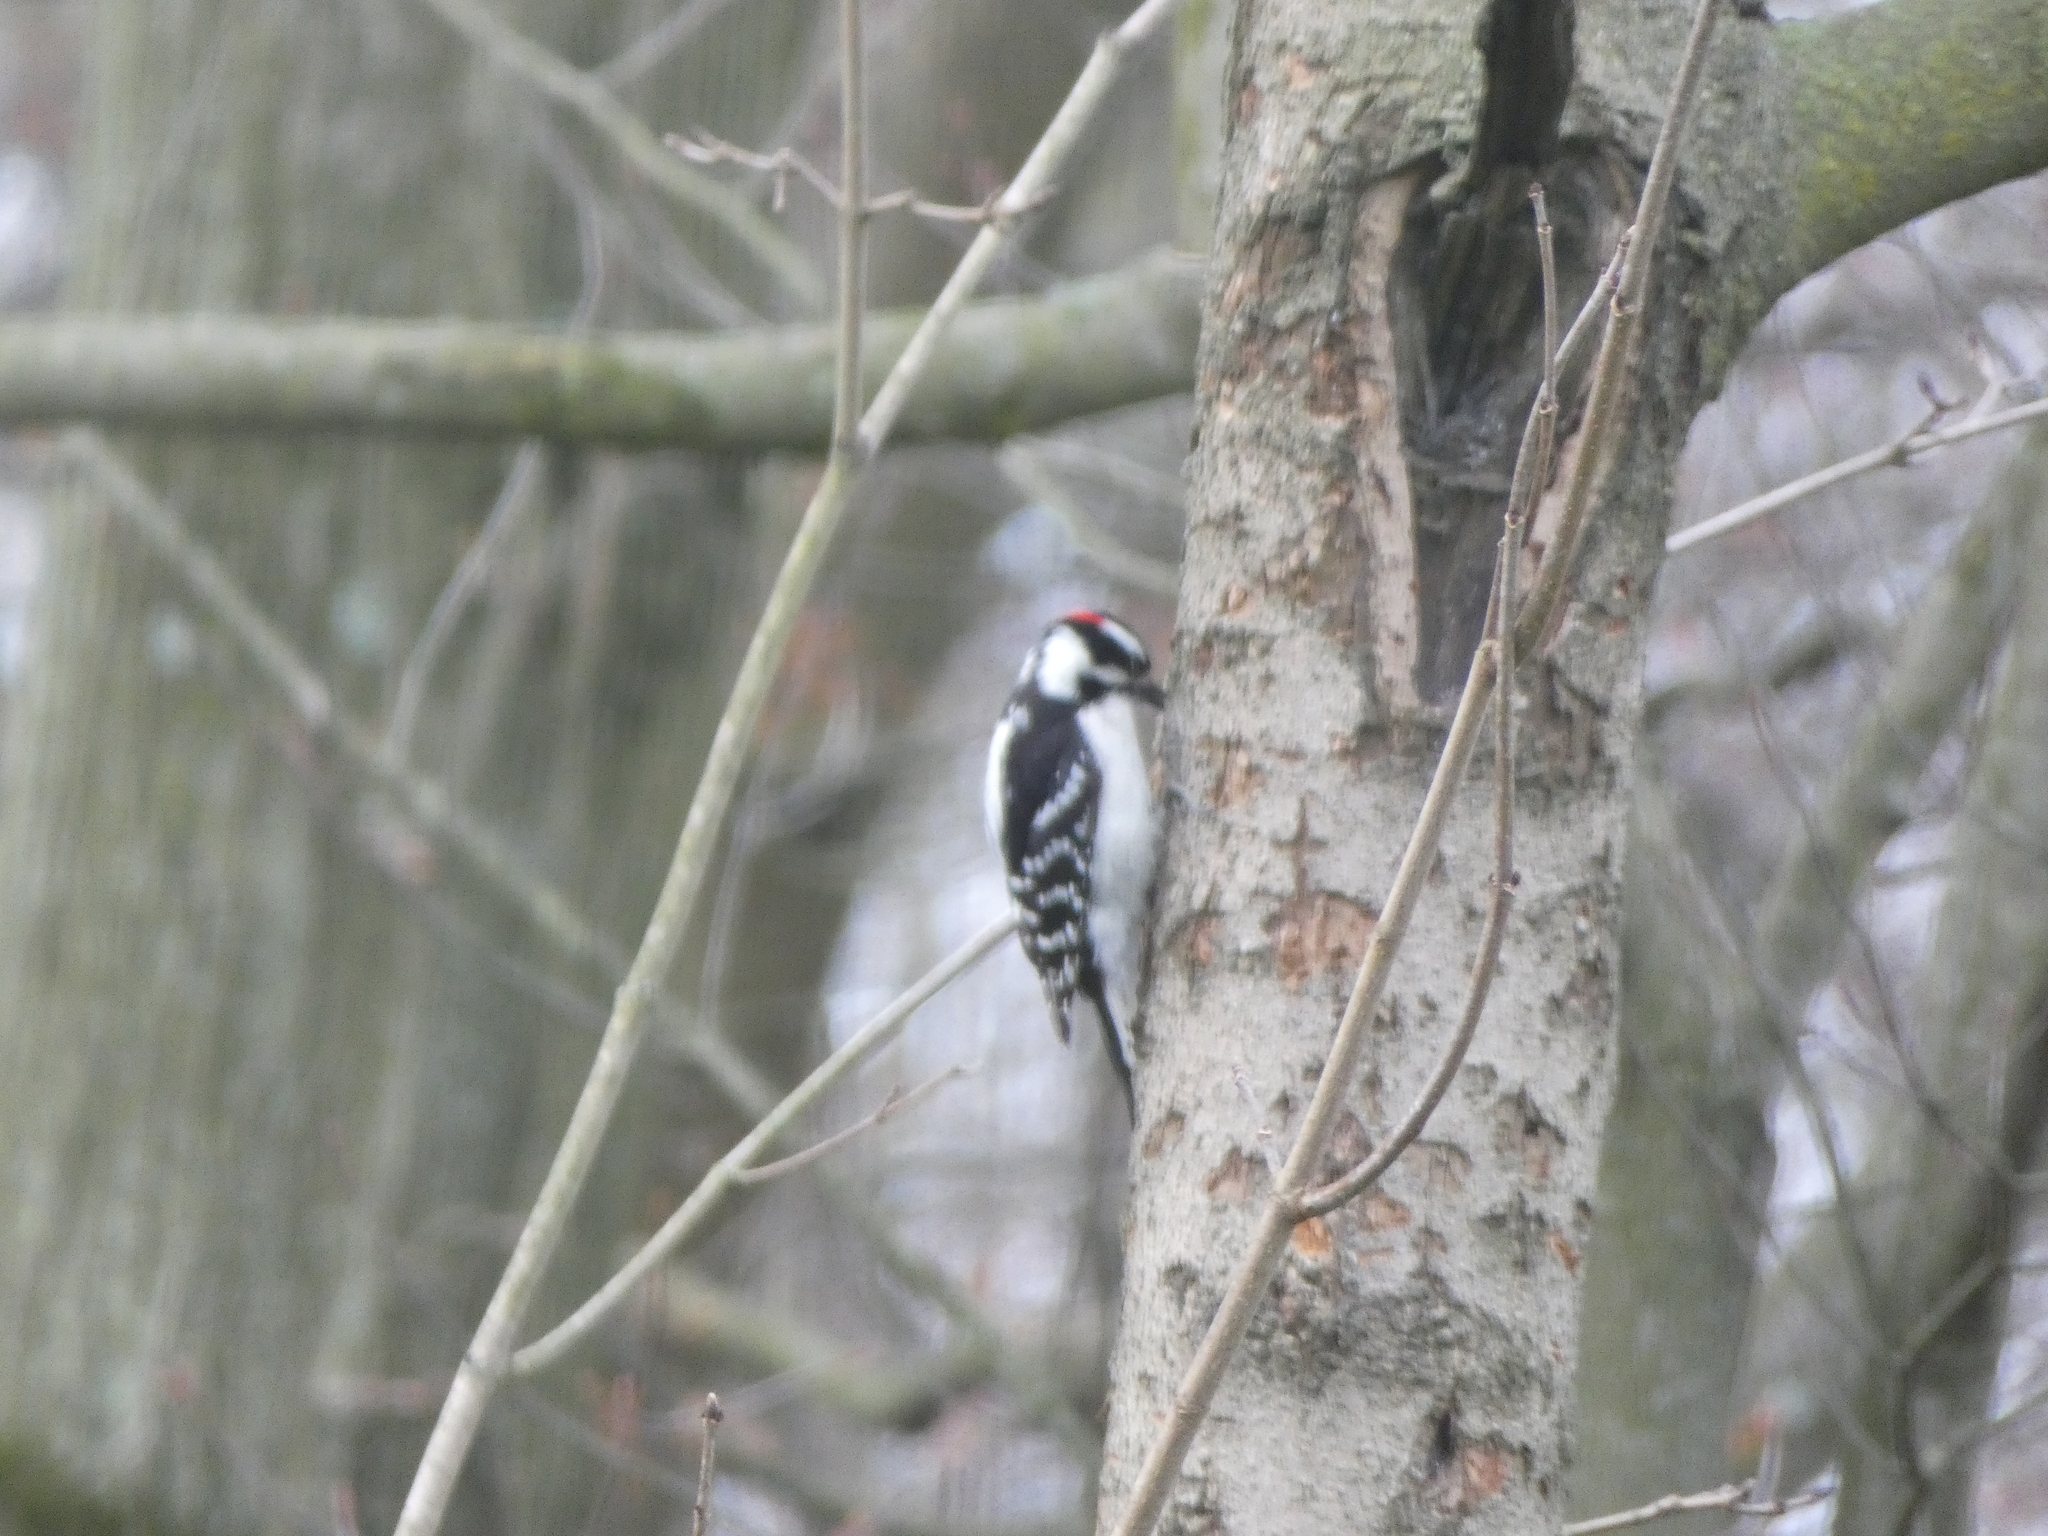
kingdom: Animalia
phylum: Chordata
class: Aves
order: Piciformes
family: Picidae
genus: Dryobates
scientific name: Dryobates pubescens
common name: Downy woodpecker
